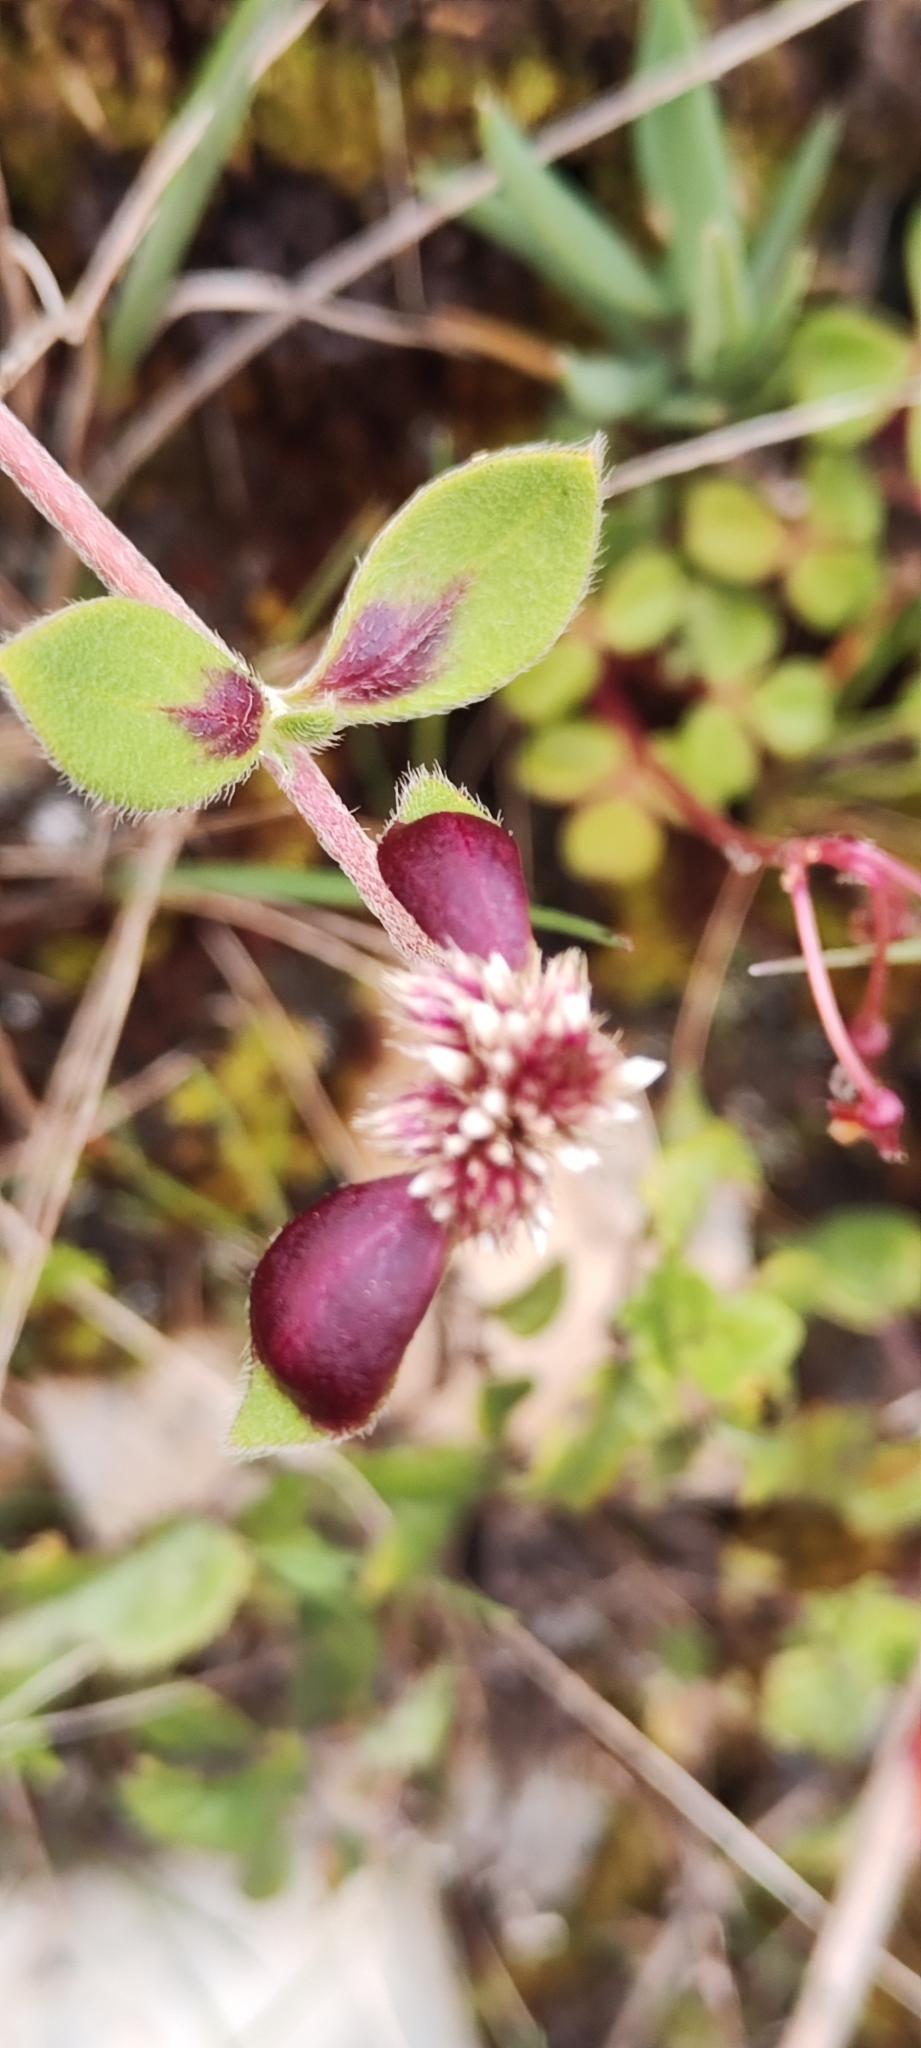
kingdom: Plantae
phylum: Tracheophyta
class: Magnoliopsida
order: Caryophyllales
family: Amaranthaceae
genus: Alternanthera
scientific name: Alternanthera macbridei
